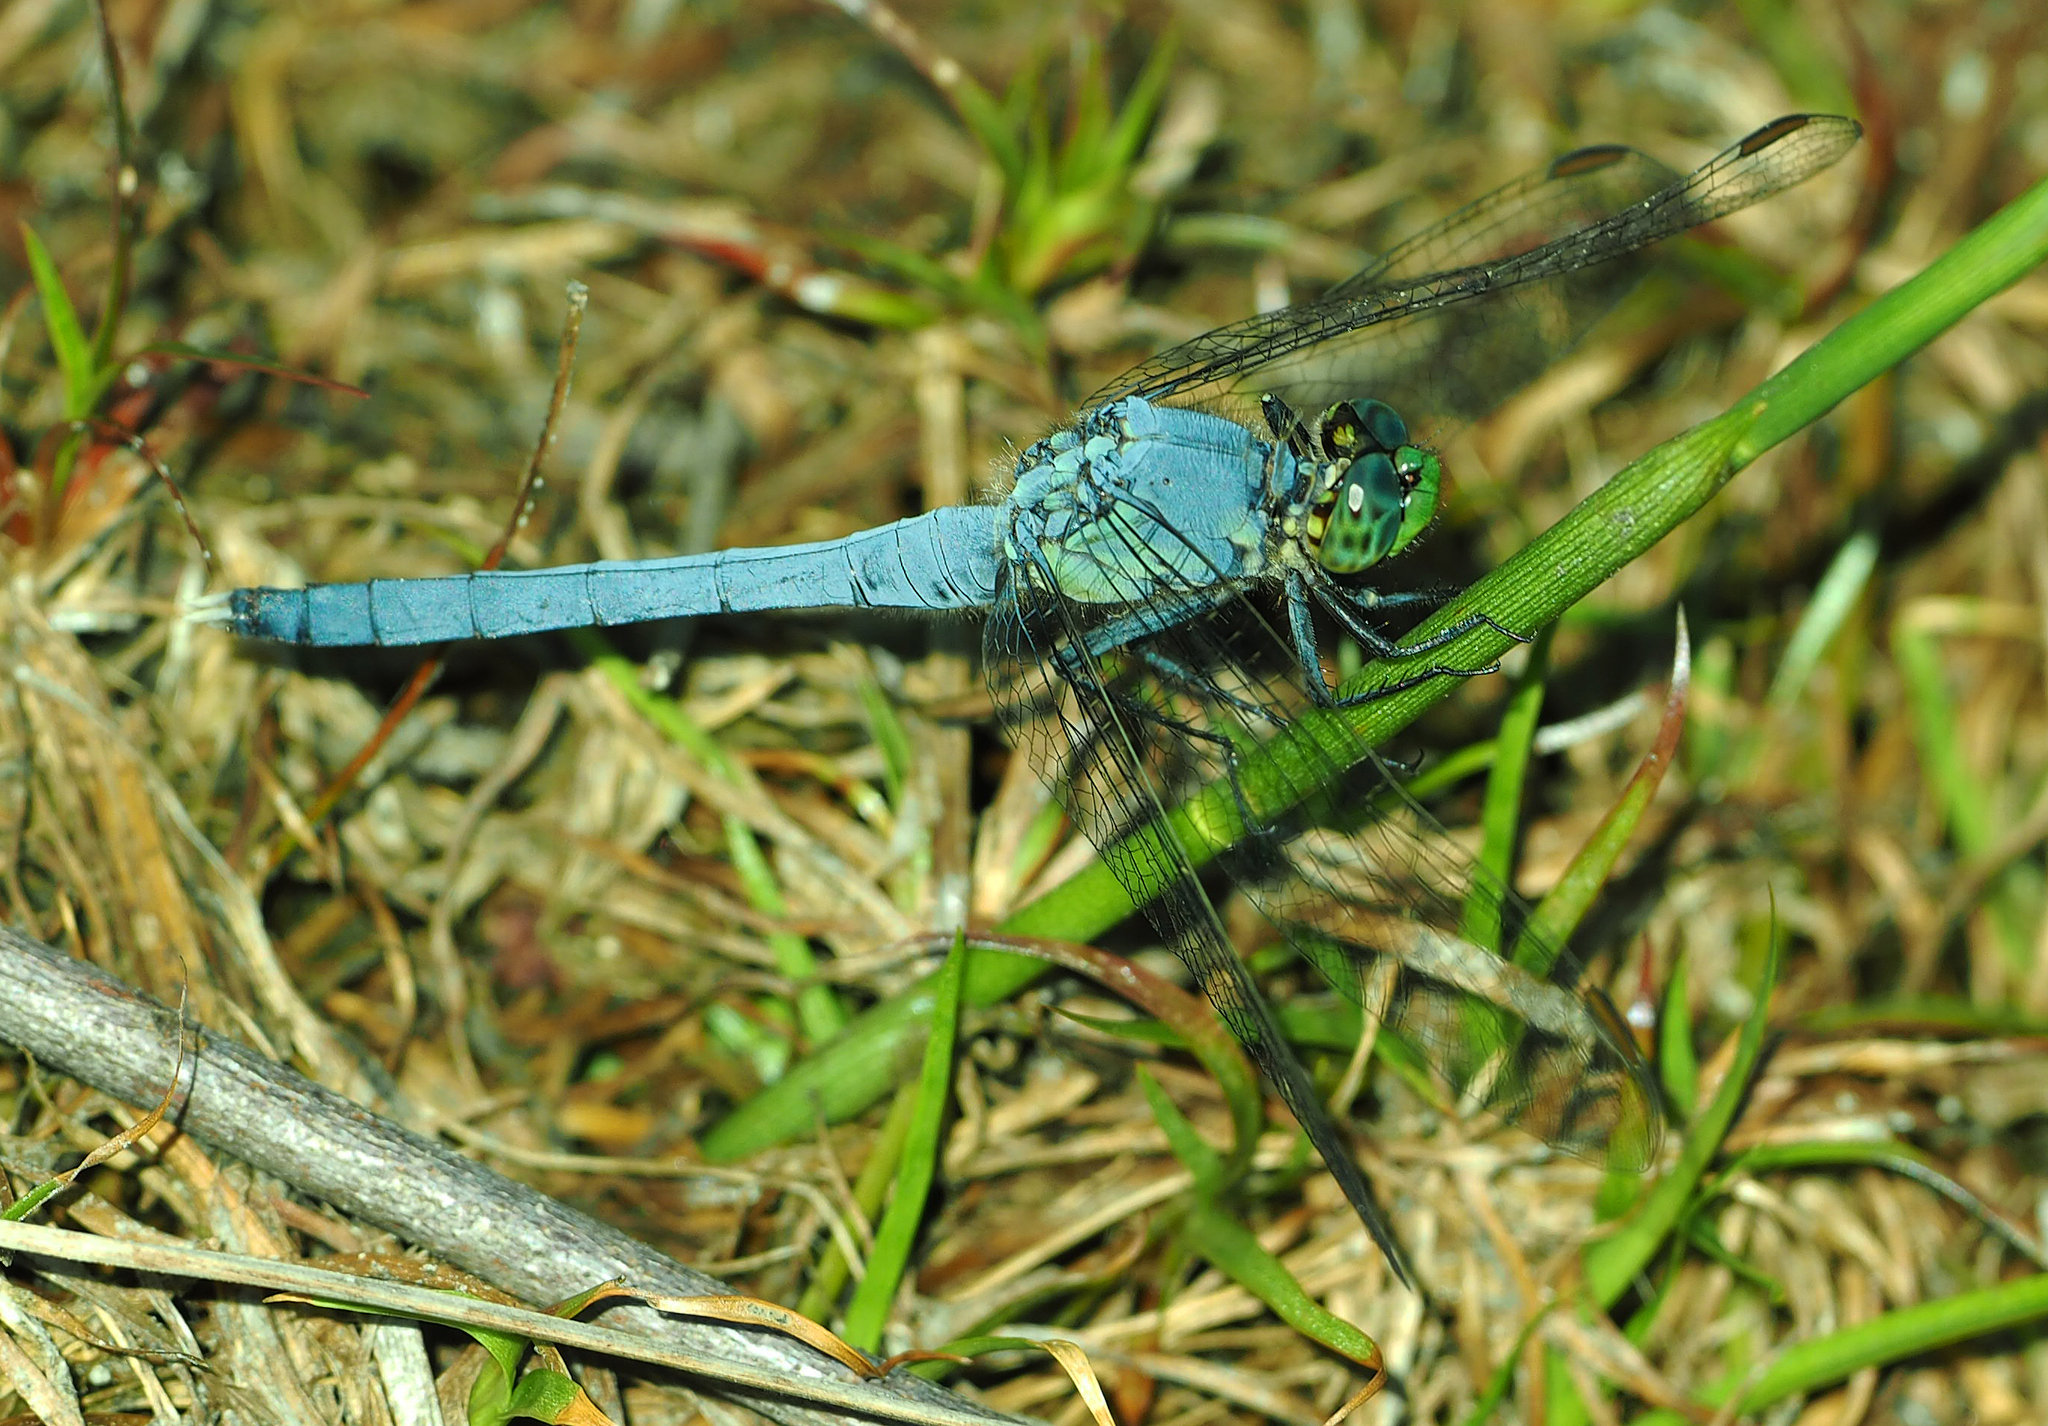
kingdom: Animalia
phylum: Arthropoda
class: Insecta
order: Odonata
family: Libellulidae
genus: Erythemis
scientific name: Erythemis simplicicollis
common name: Eastern pondhawk
